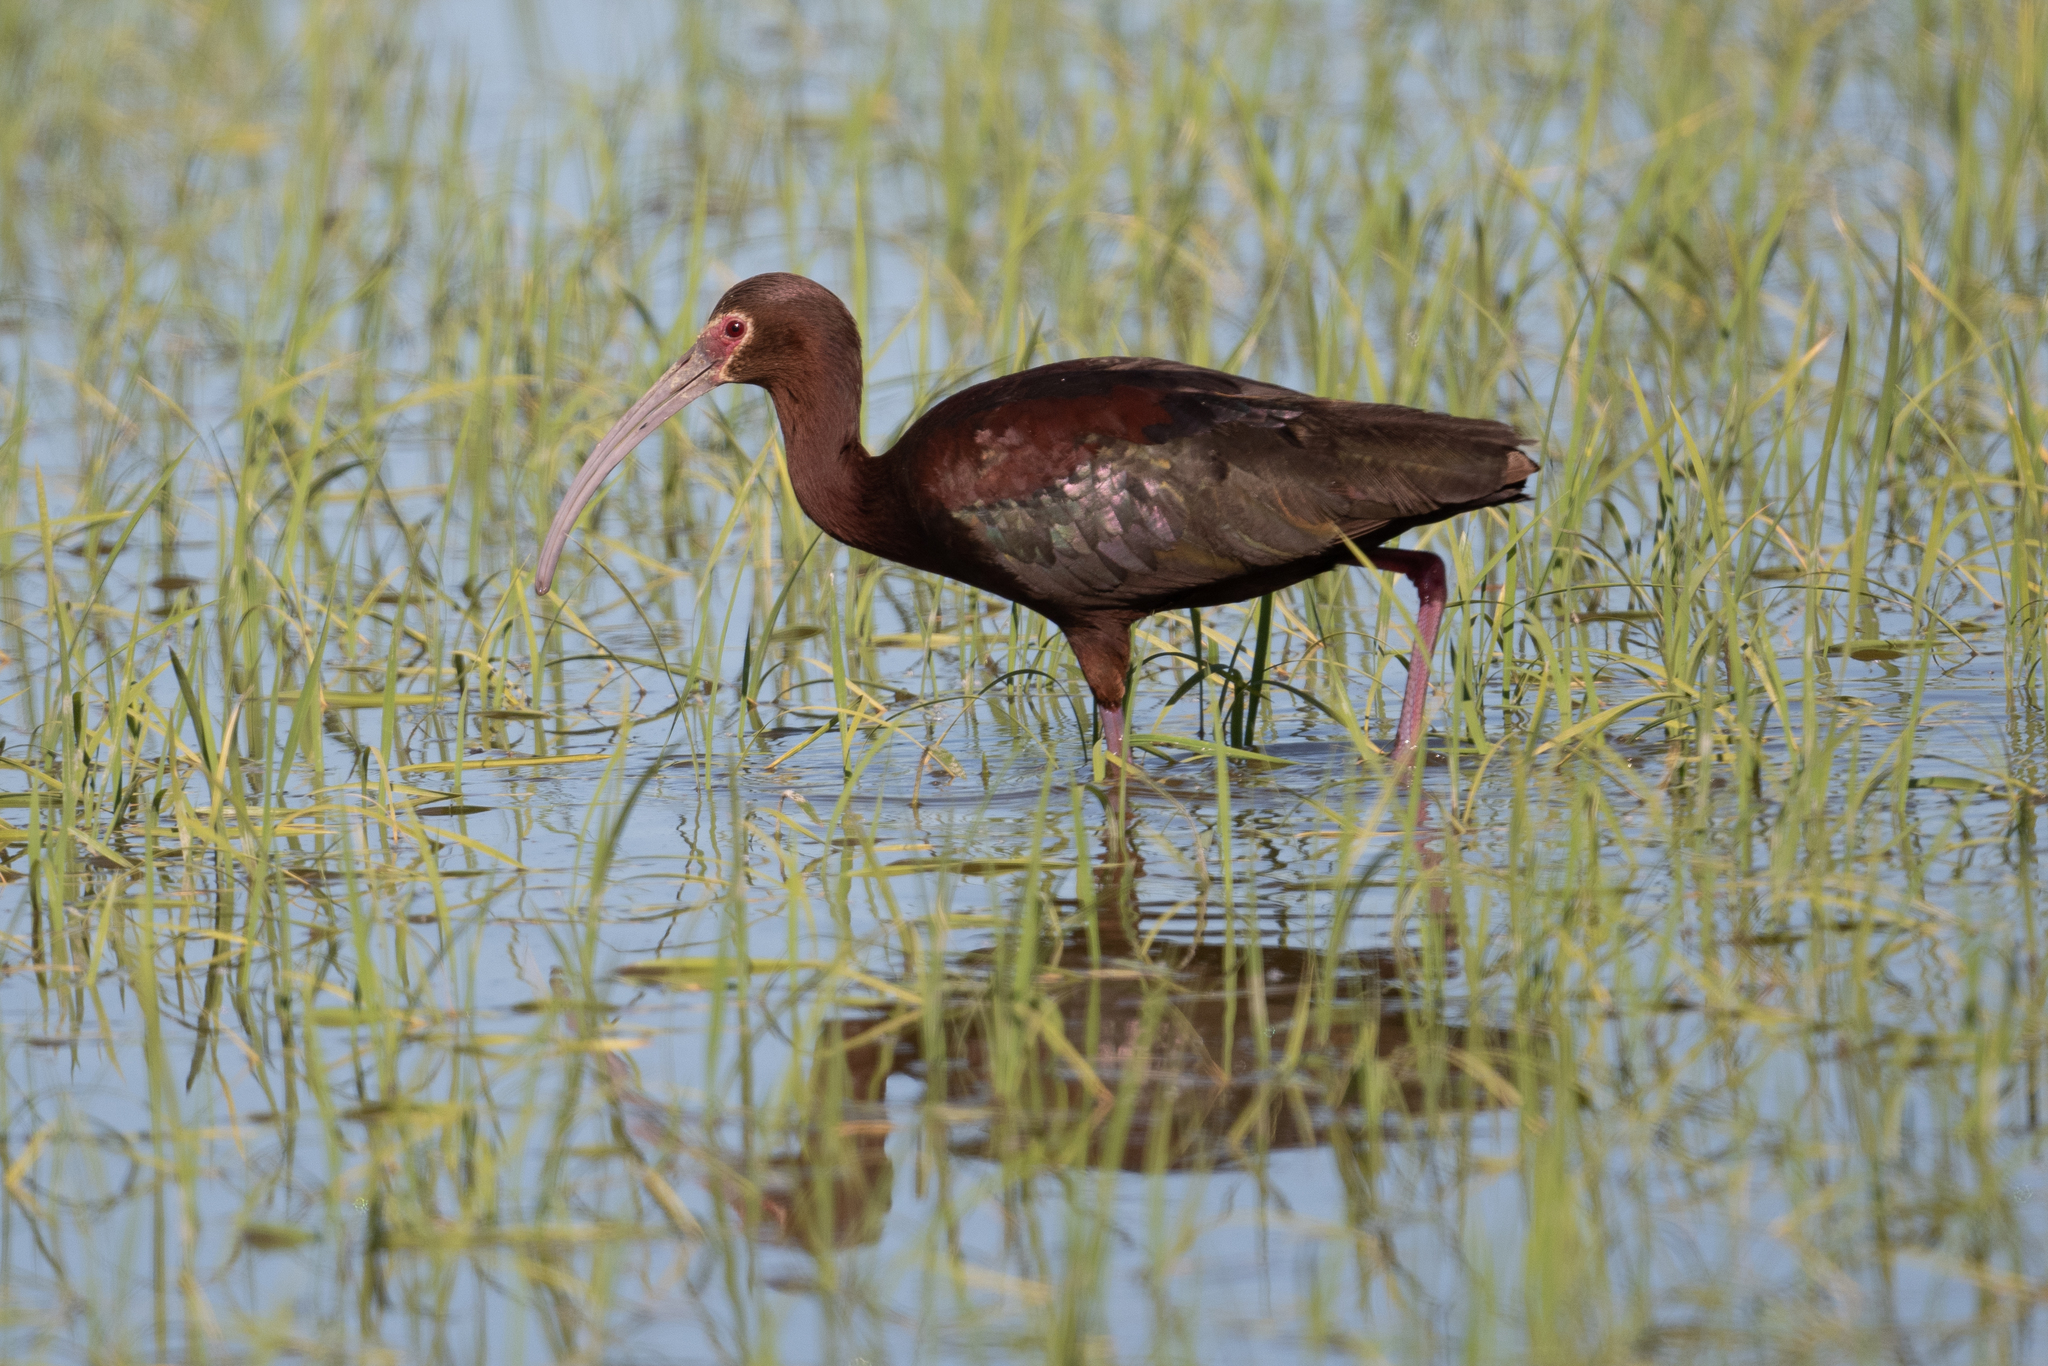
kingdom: Animalia
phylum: Chordata
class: Aves
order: Pelecaniformes
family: Threskiornithidae
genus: Plegadis
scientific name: Plegadis chihi
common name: White-faced ibis
